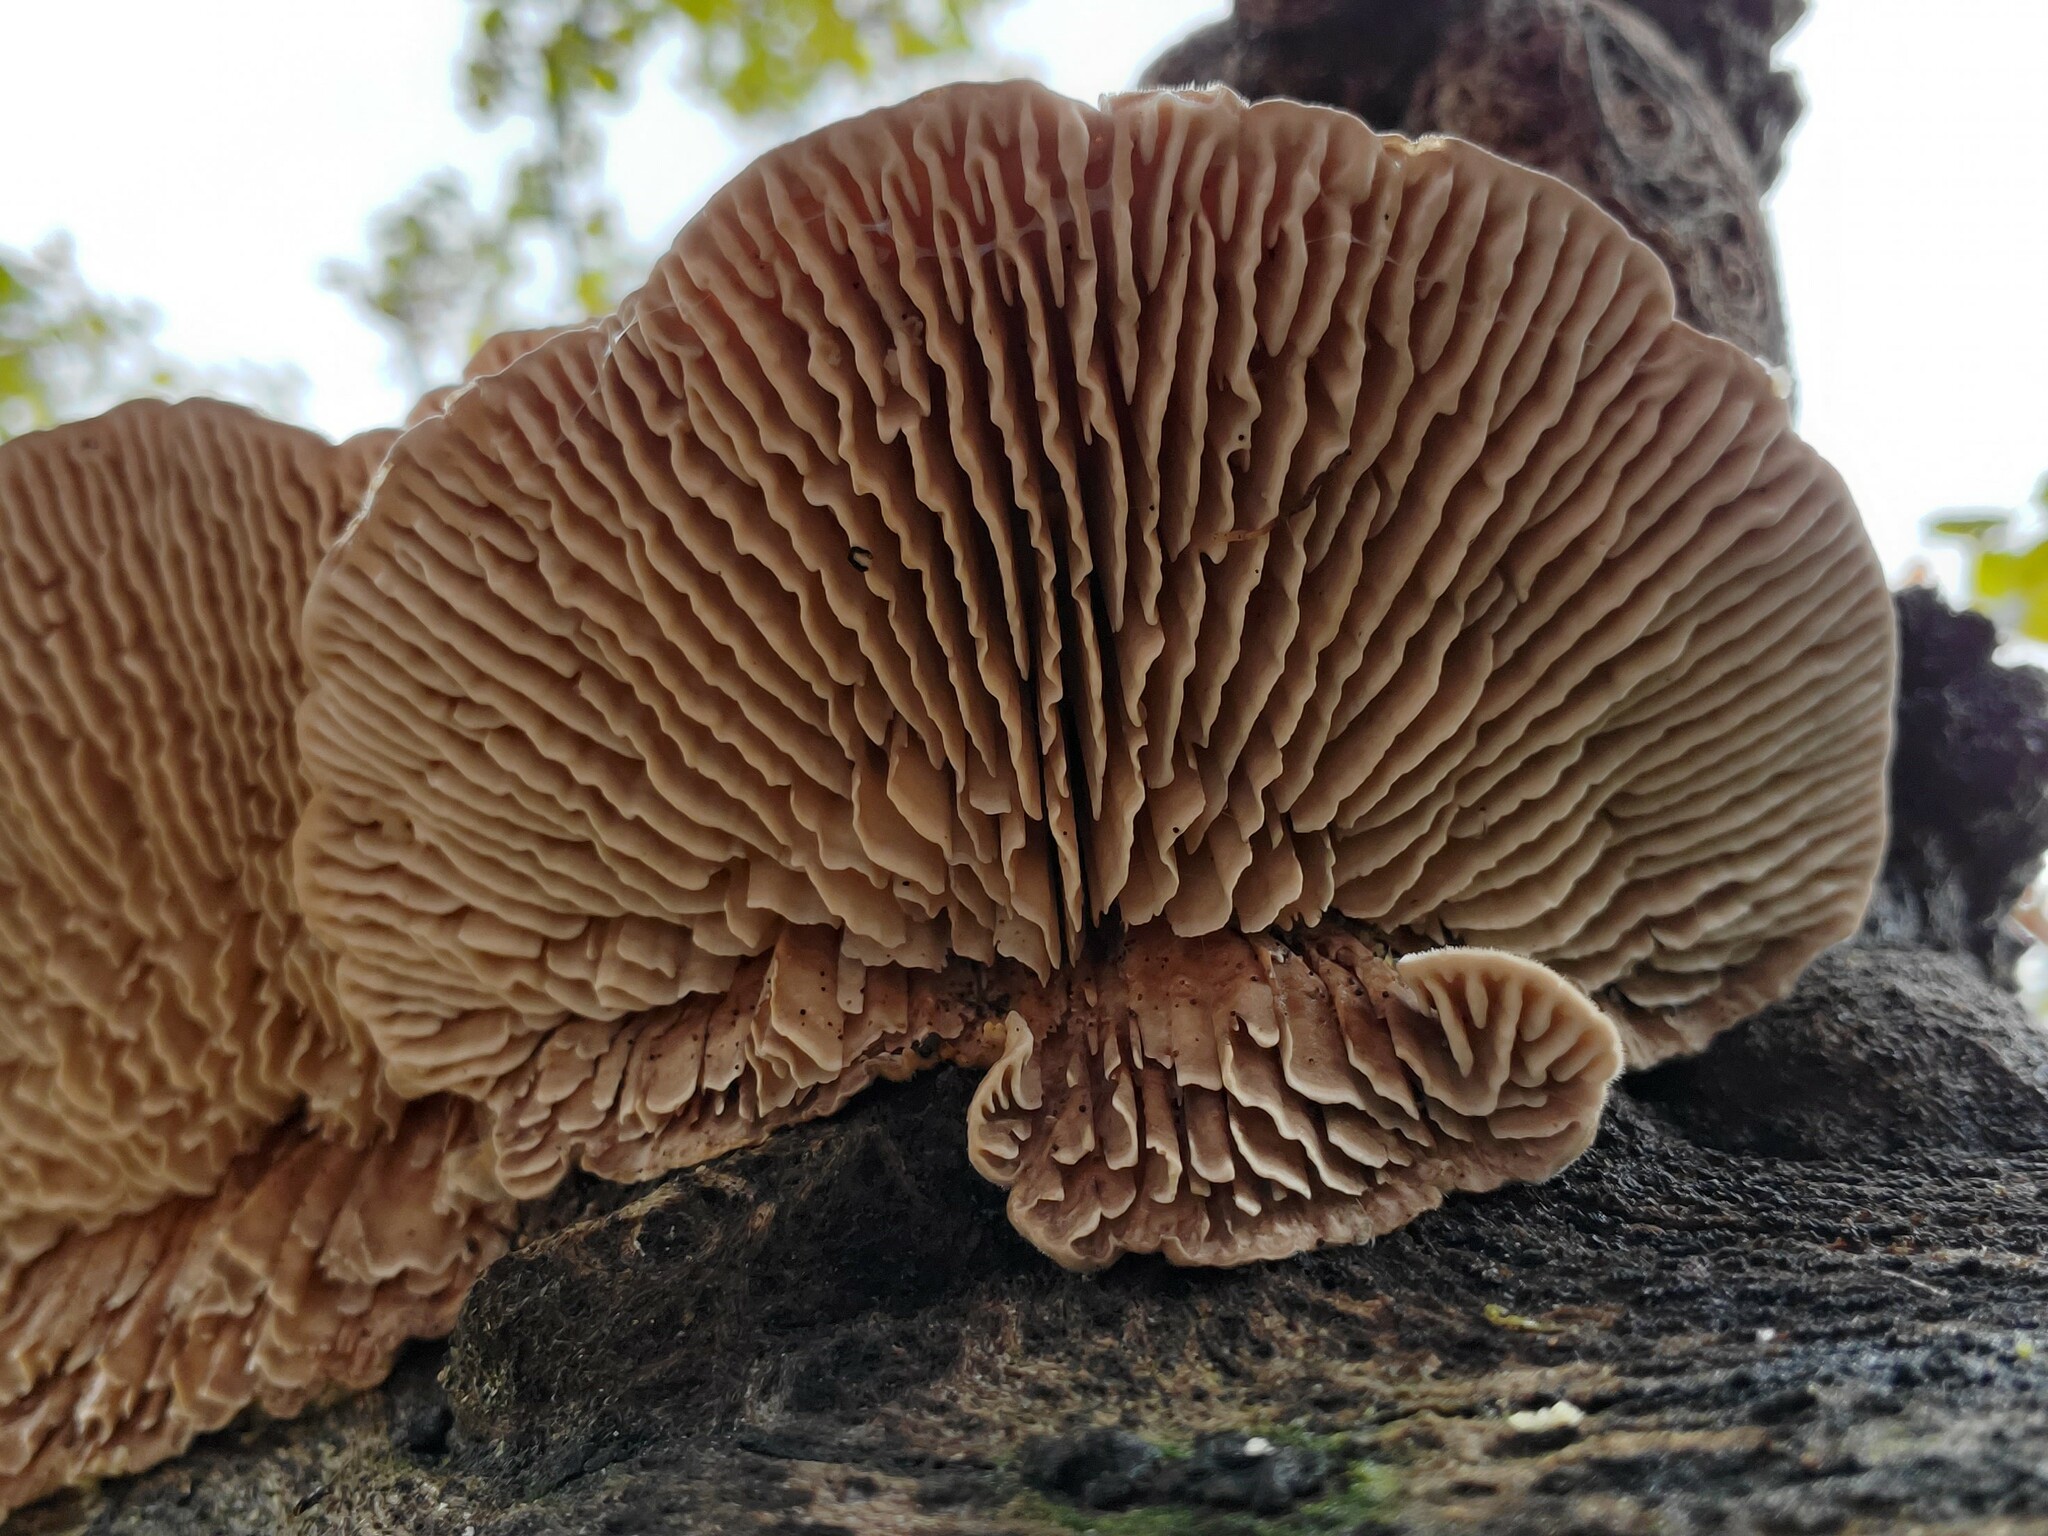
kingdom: Fungi
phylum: Basidiomycota
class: Agaricomycetes
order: Polyporales
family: Polyporaceae
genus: Lenzites
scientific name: Lenzites betulinus
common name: Birch mazegill
